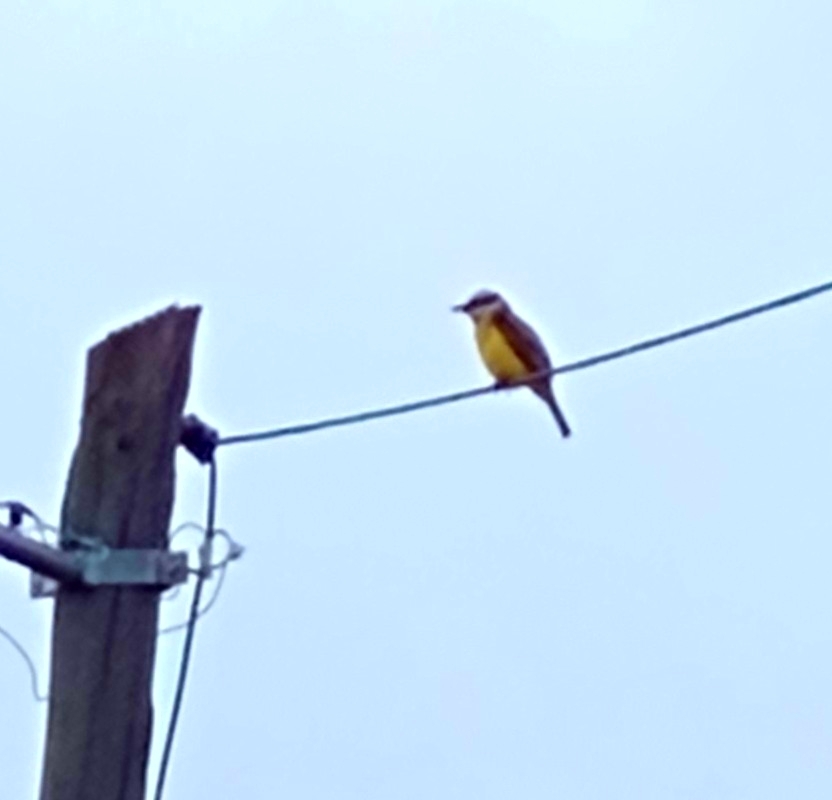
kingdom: Animalia
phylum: Chordata
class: Aves
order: Passeriformes
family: Tyrannidae
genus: Pitangus
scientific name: Pitangus sulphuratus
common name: Great kiskadee
